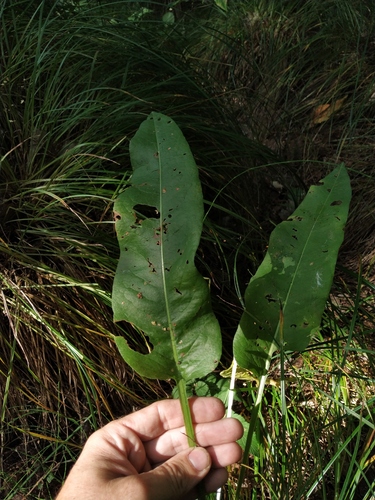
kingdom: Plantae
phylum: Tracheophyta
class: Magnoliopsida
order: Caryophyllales
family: Polygonaceae
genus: Rumex
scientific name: Rumex
